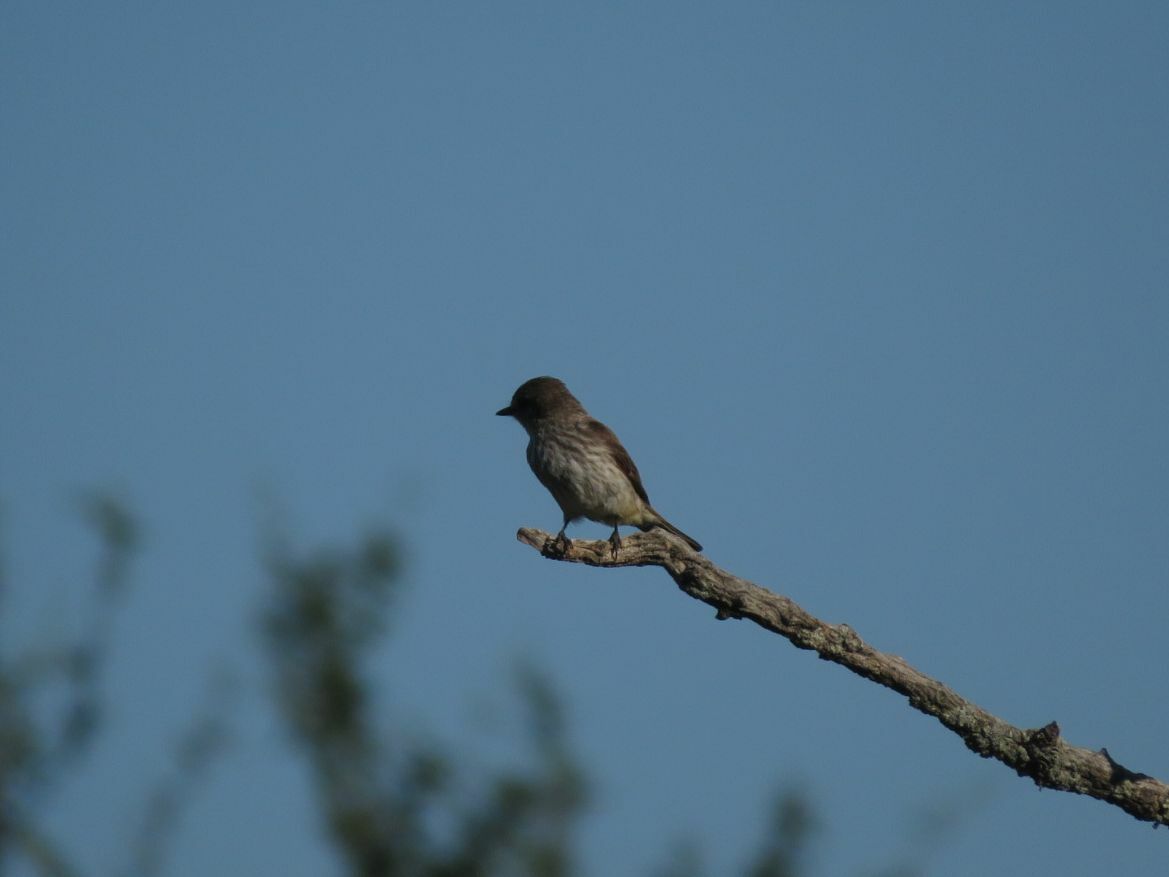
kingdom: Animalia
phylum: Chordata
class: Aves
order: Passeriformes
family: Tyrannidae
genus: Pyrocephalus
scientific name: Pyrocephalus rubinus
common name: Vermilion flycatcher
